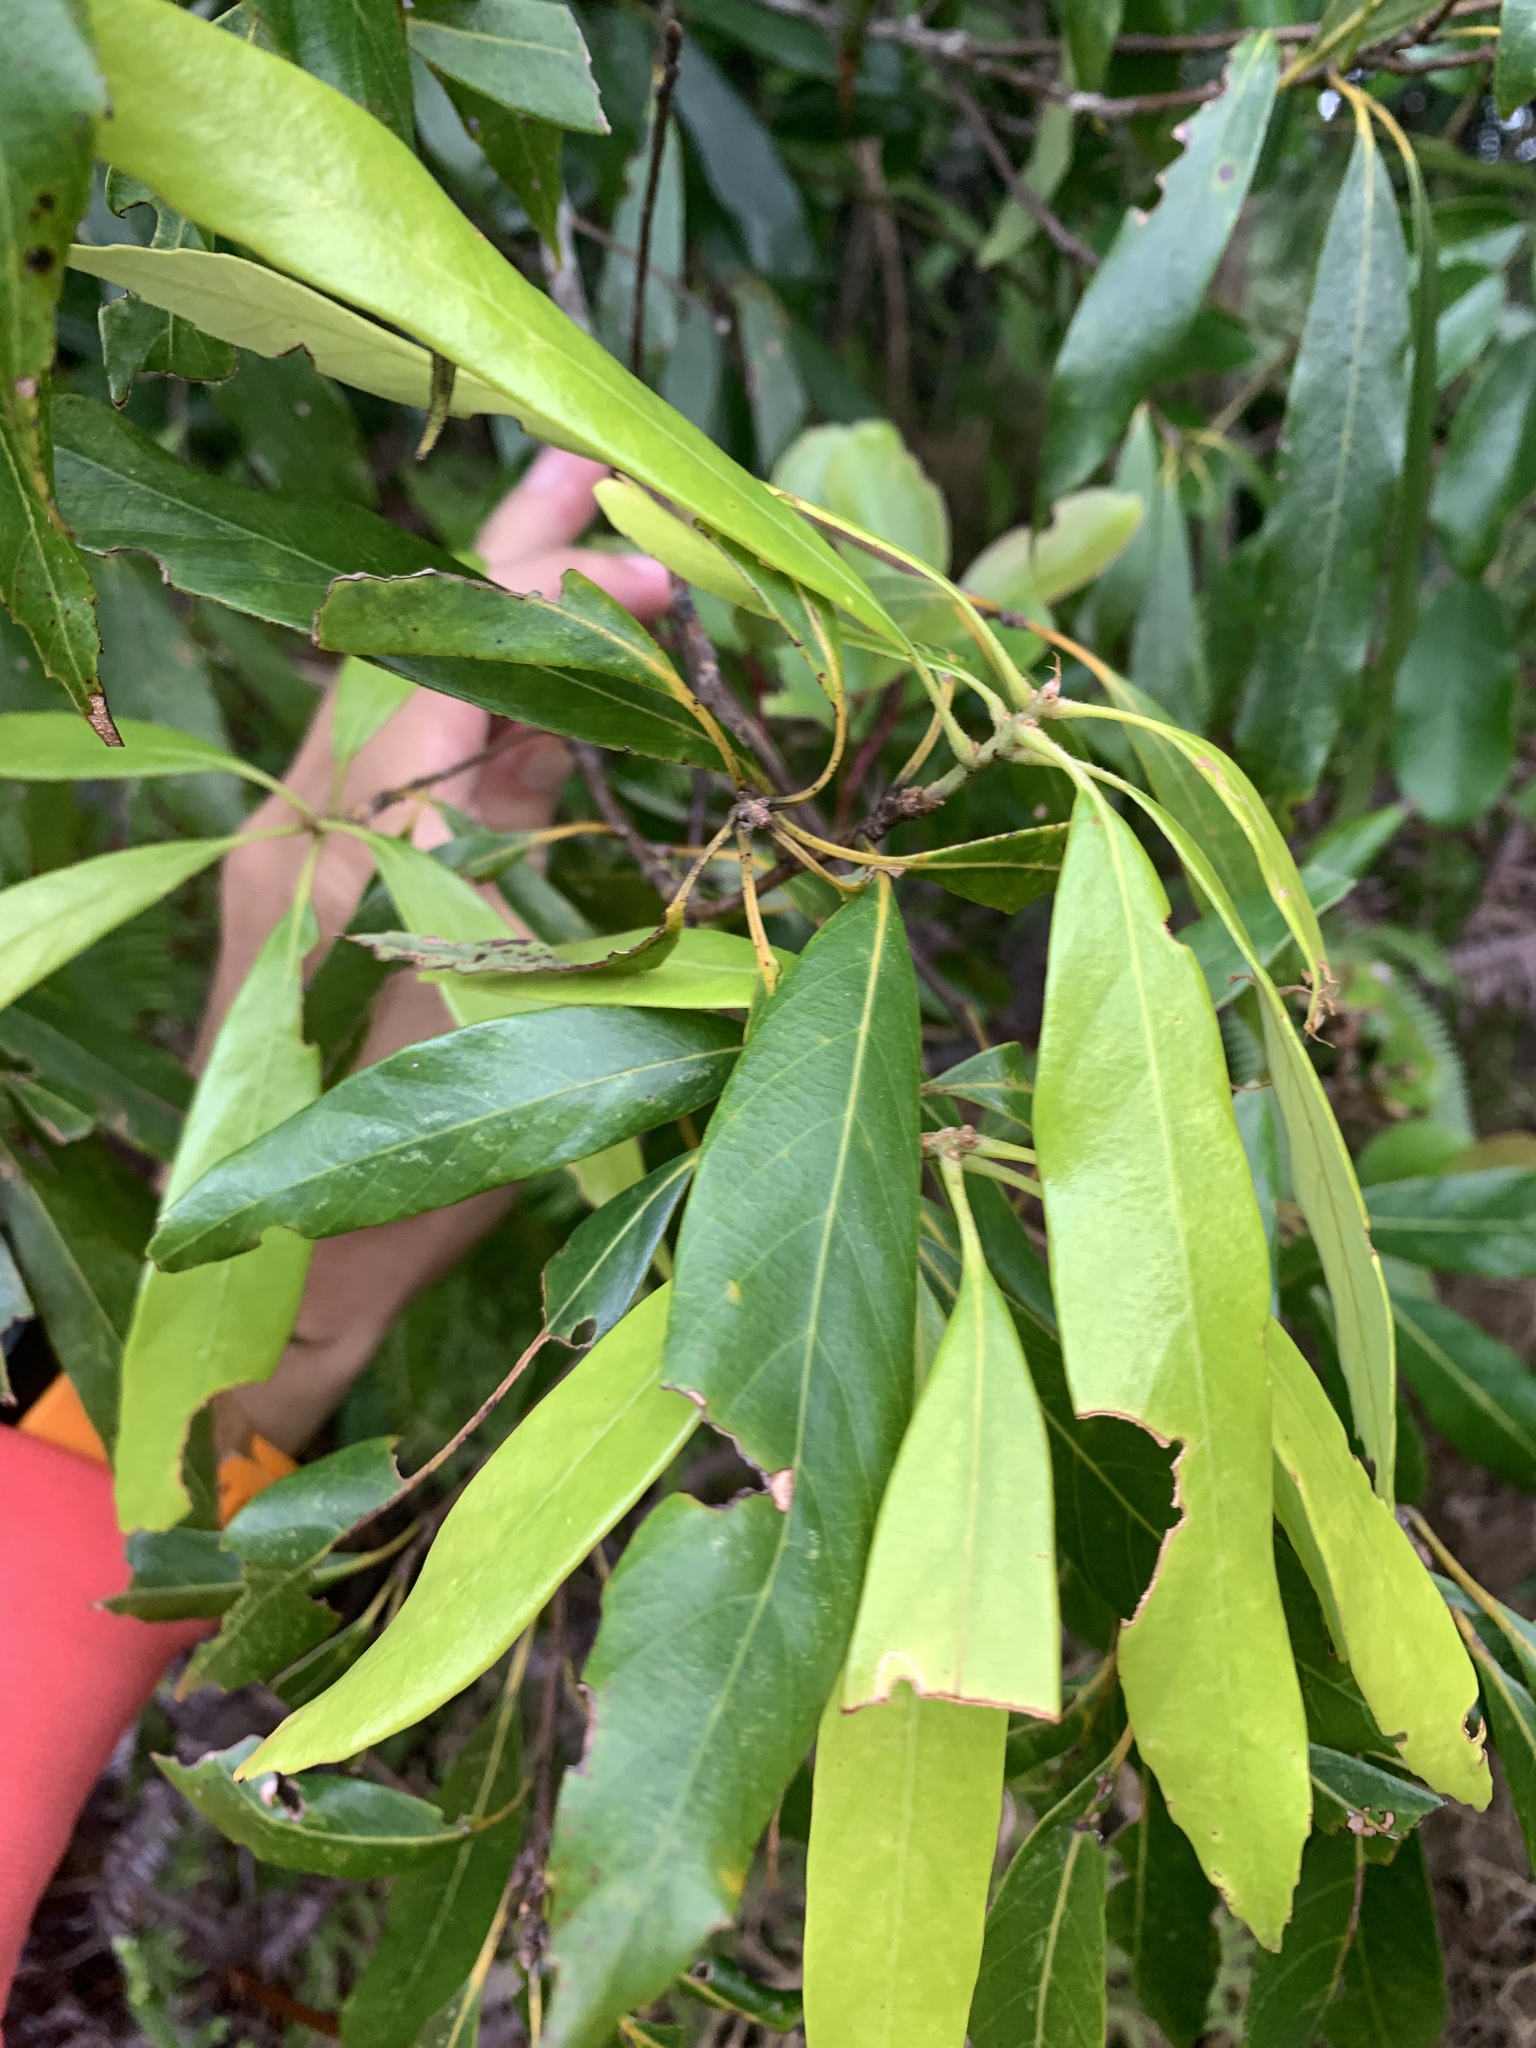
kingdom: Plantae
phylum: Tracheophyta
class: Magnoliopsida
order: Fagales
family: Fagaceae
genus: Quercus
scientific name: Quercus pachyloma
